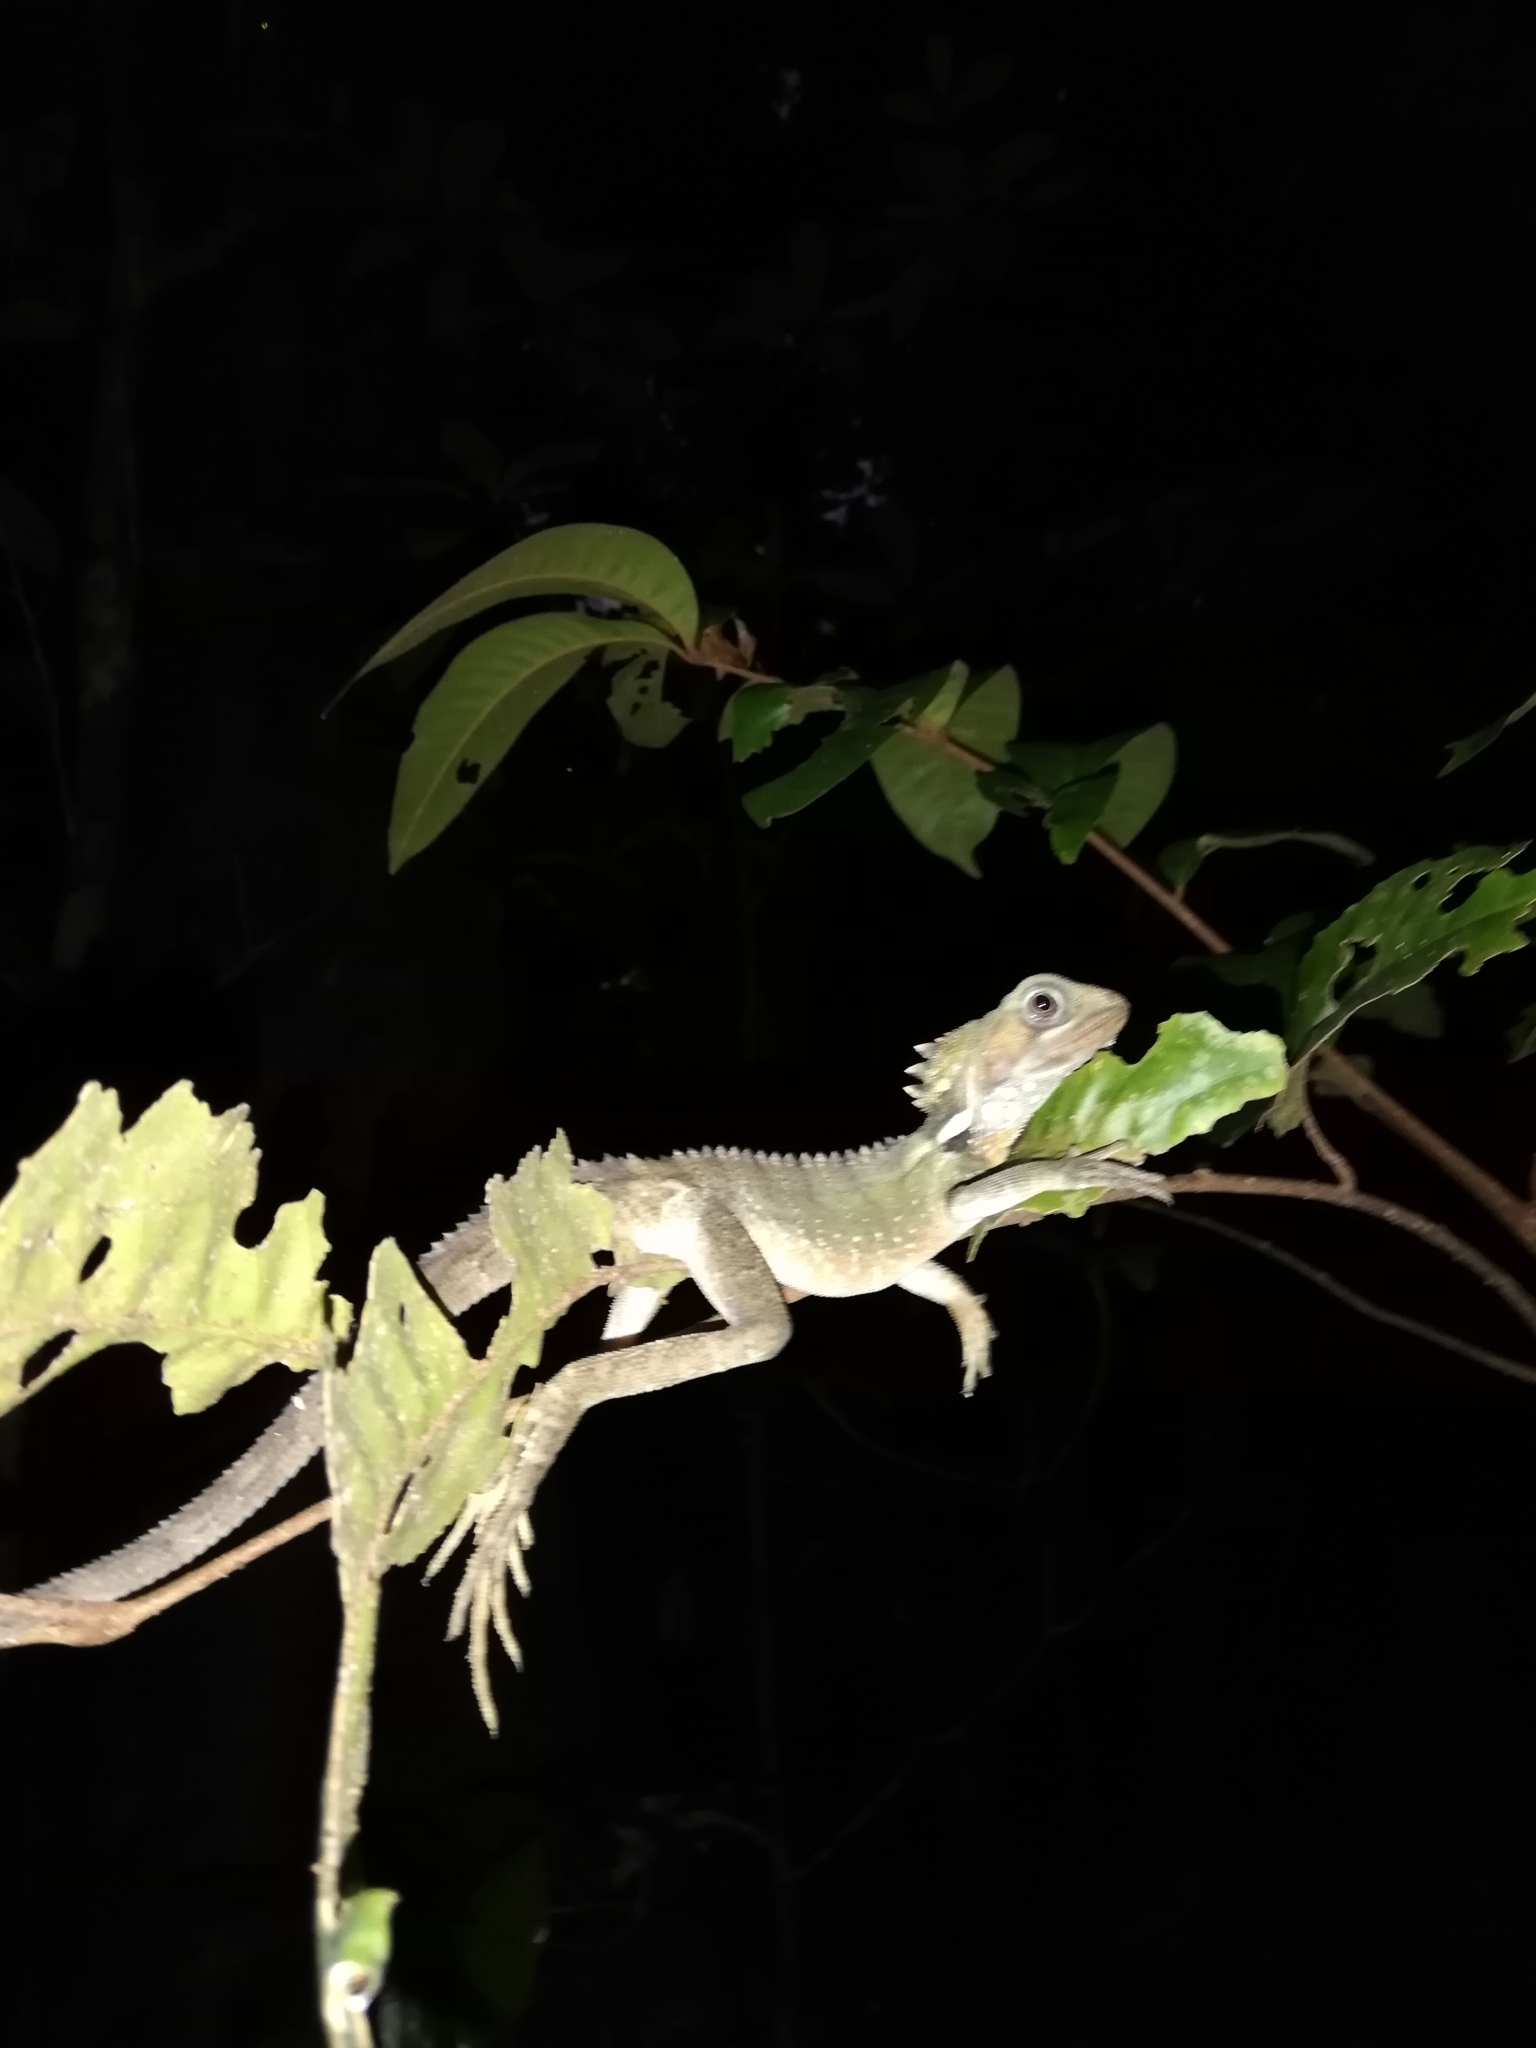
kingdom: Animalia
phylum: Chordata
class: Squamata
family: Agamidae
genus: Lophosaurus
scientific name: Lophosaurus boydii
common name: Boyd's forest dragon
